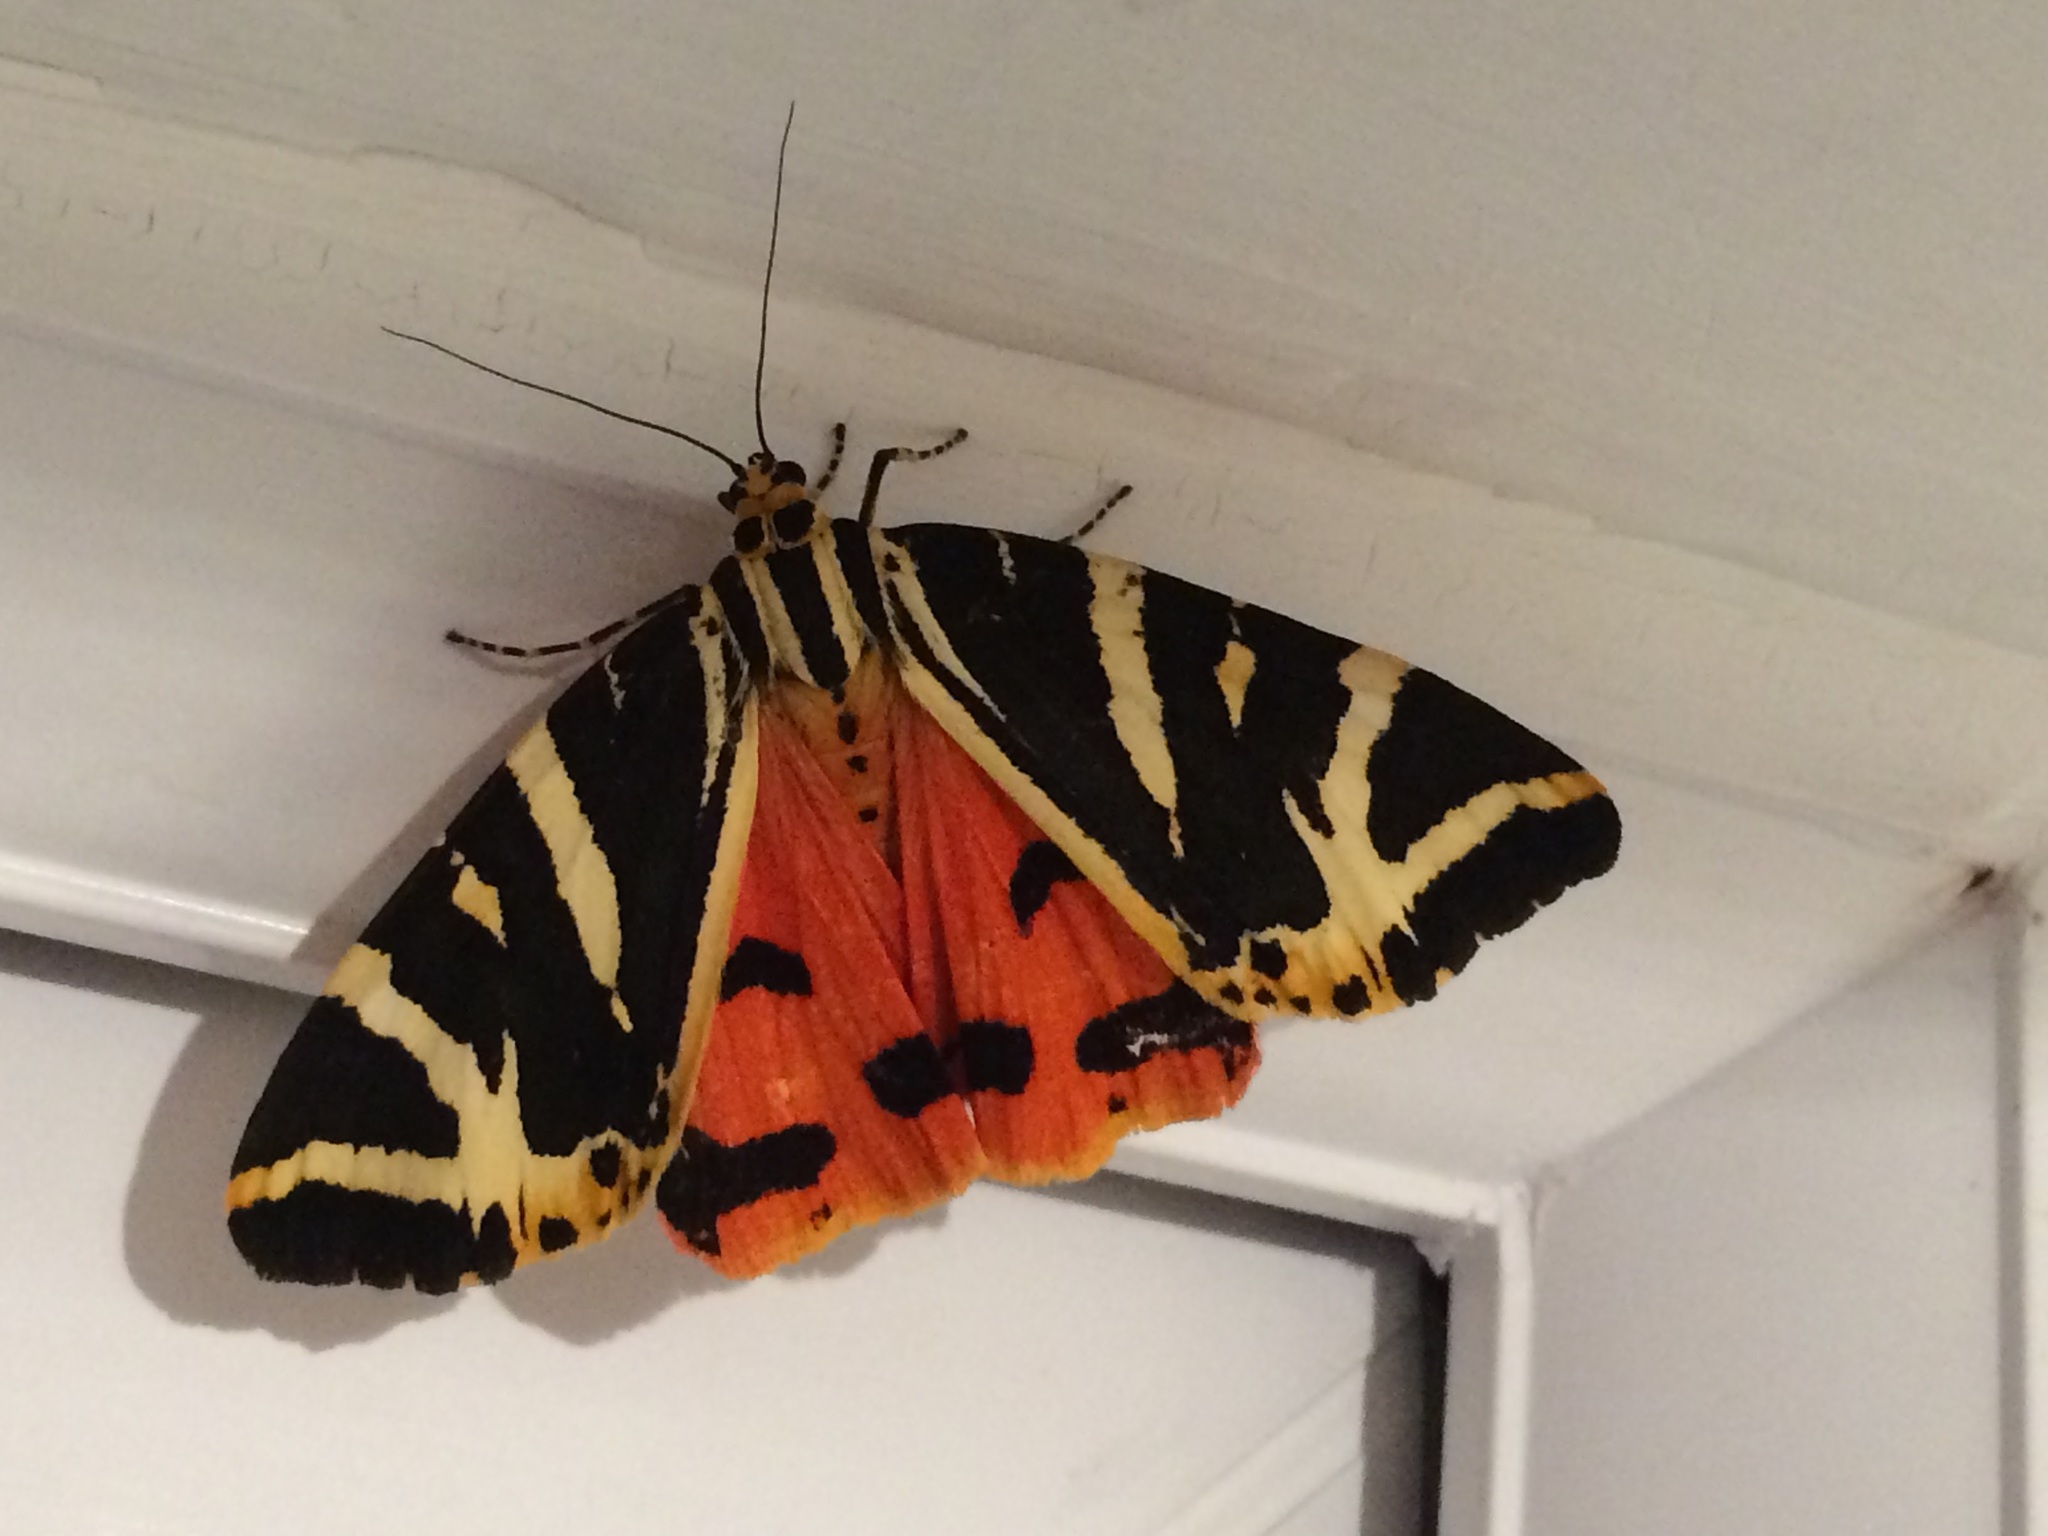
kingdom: Animalia
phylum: Arthropoda
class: Insecta
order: Lepidoptera
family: Erebidae
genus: Euplagia
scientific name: Euplagia quadripunctaria
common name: Jersey tiger
